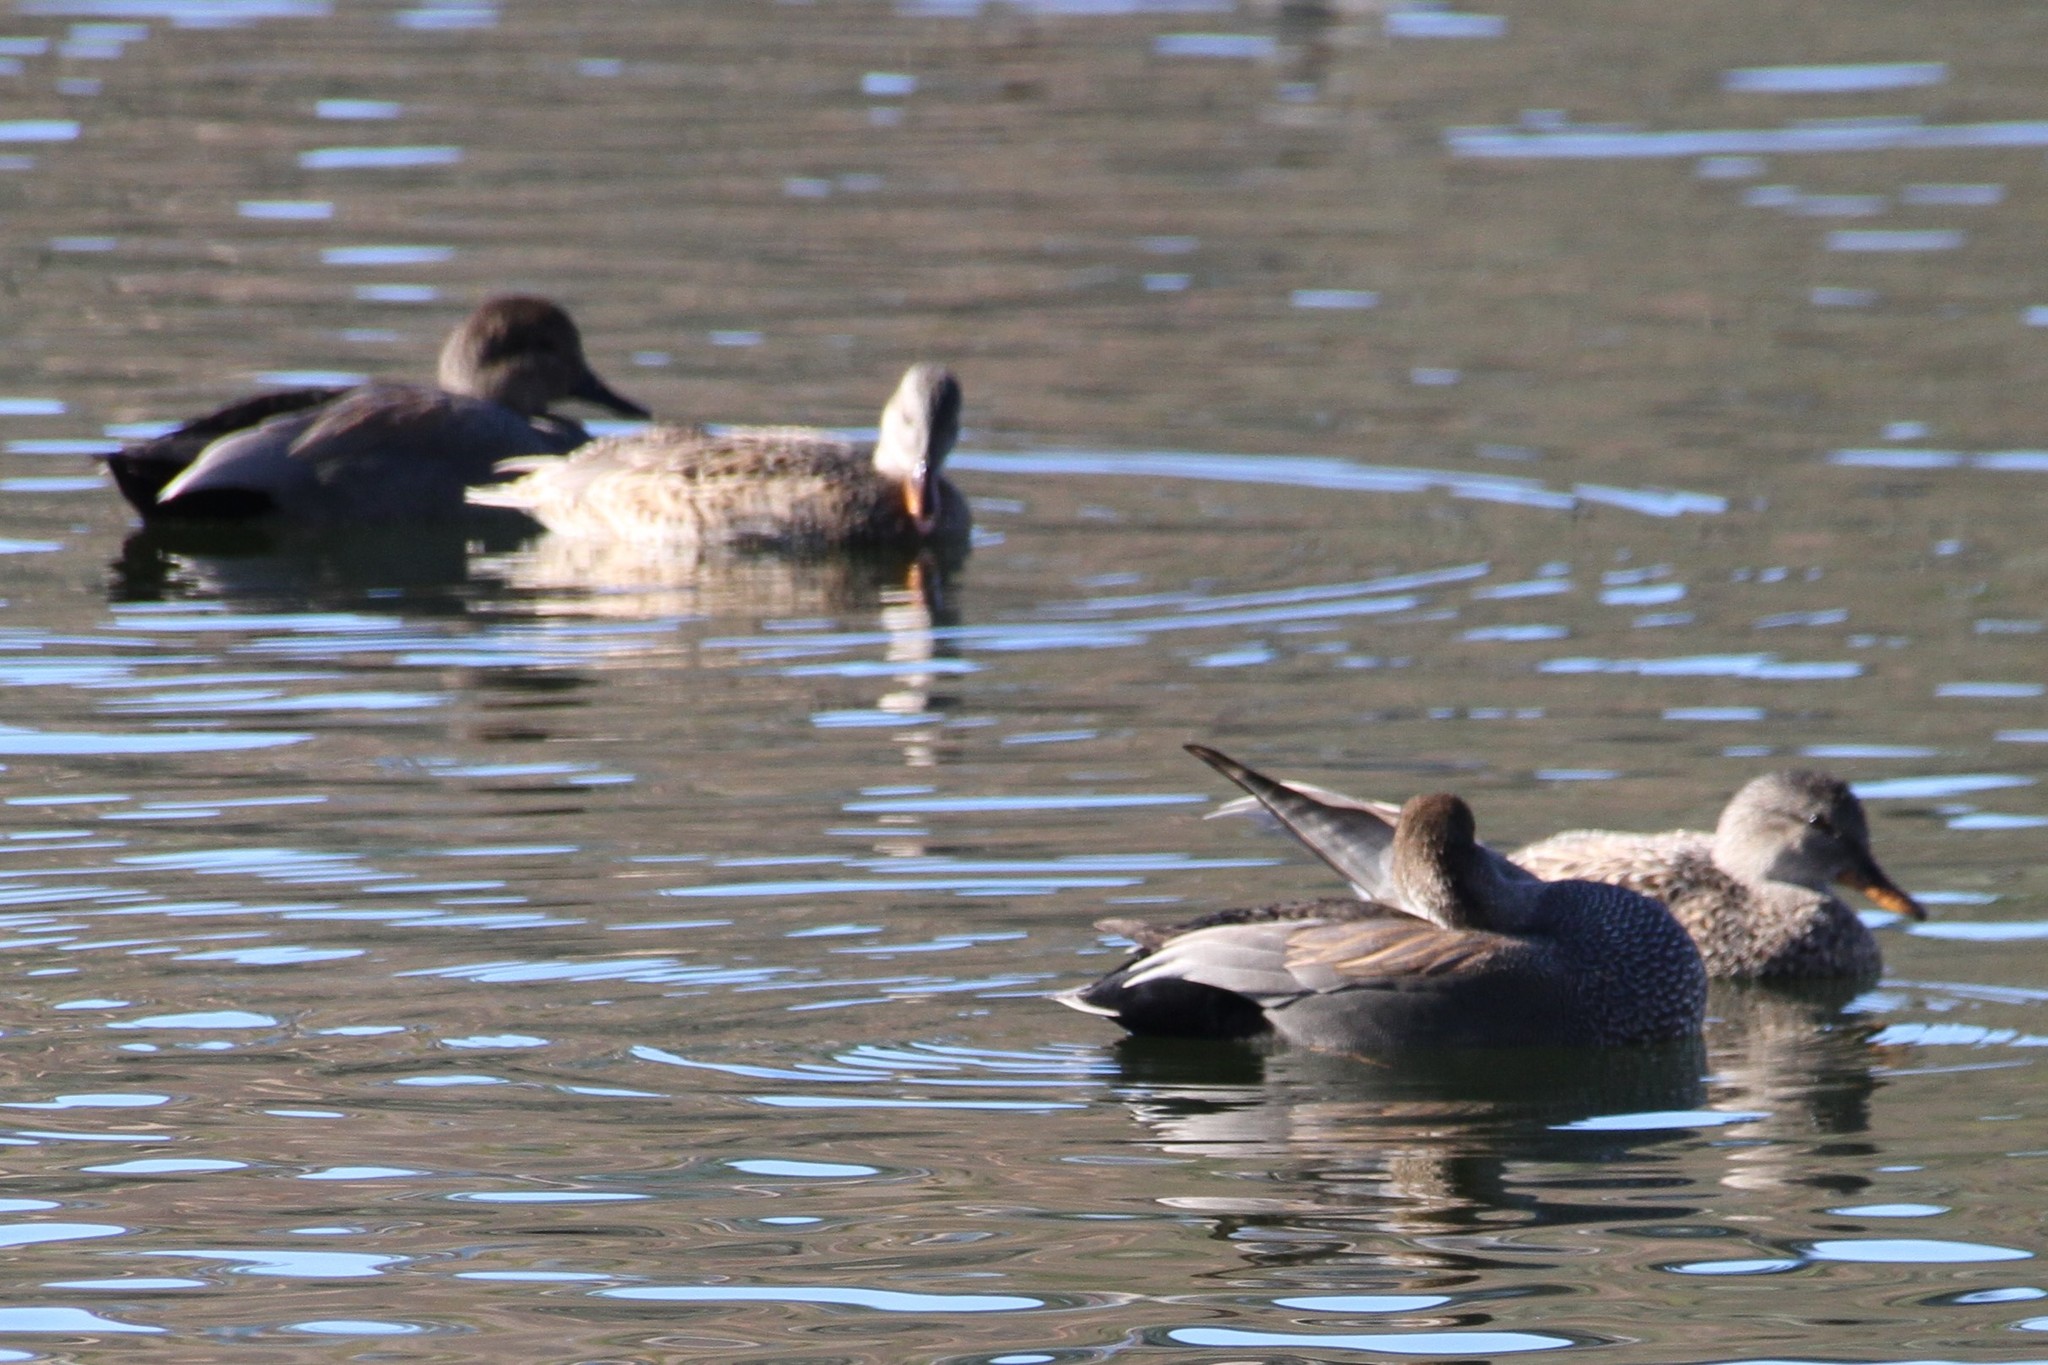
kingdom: Animalia
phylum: Chordata
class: Aves
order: Anseriformes
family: Anatidae
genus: Mareca
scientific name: Mareca strepera
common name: Gadwall
